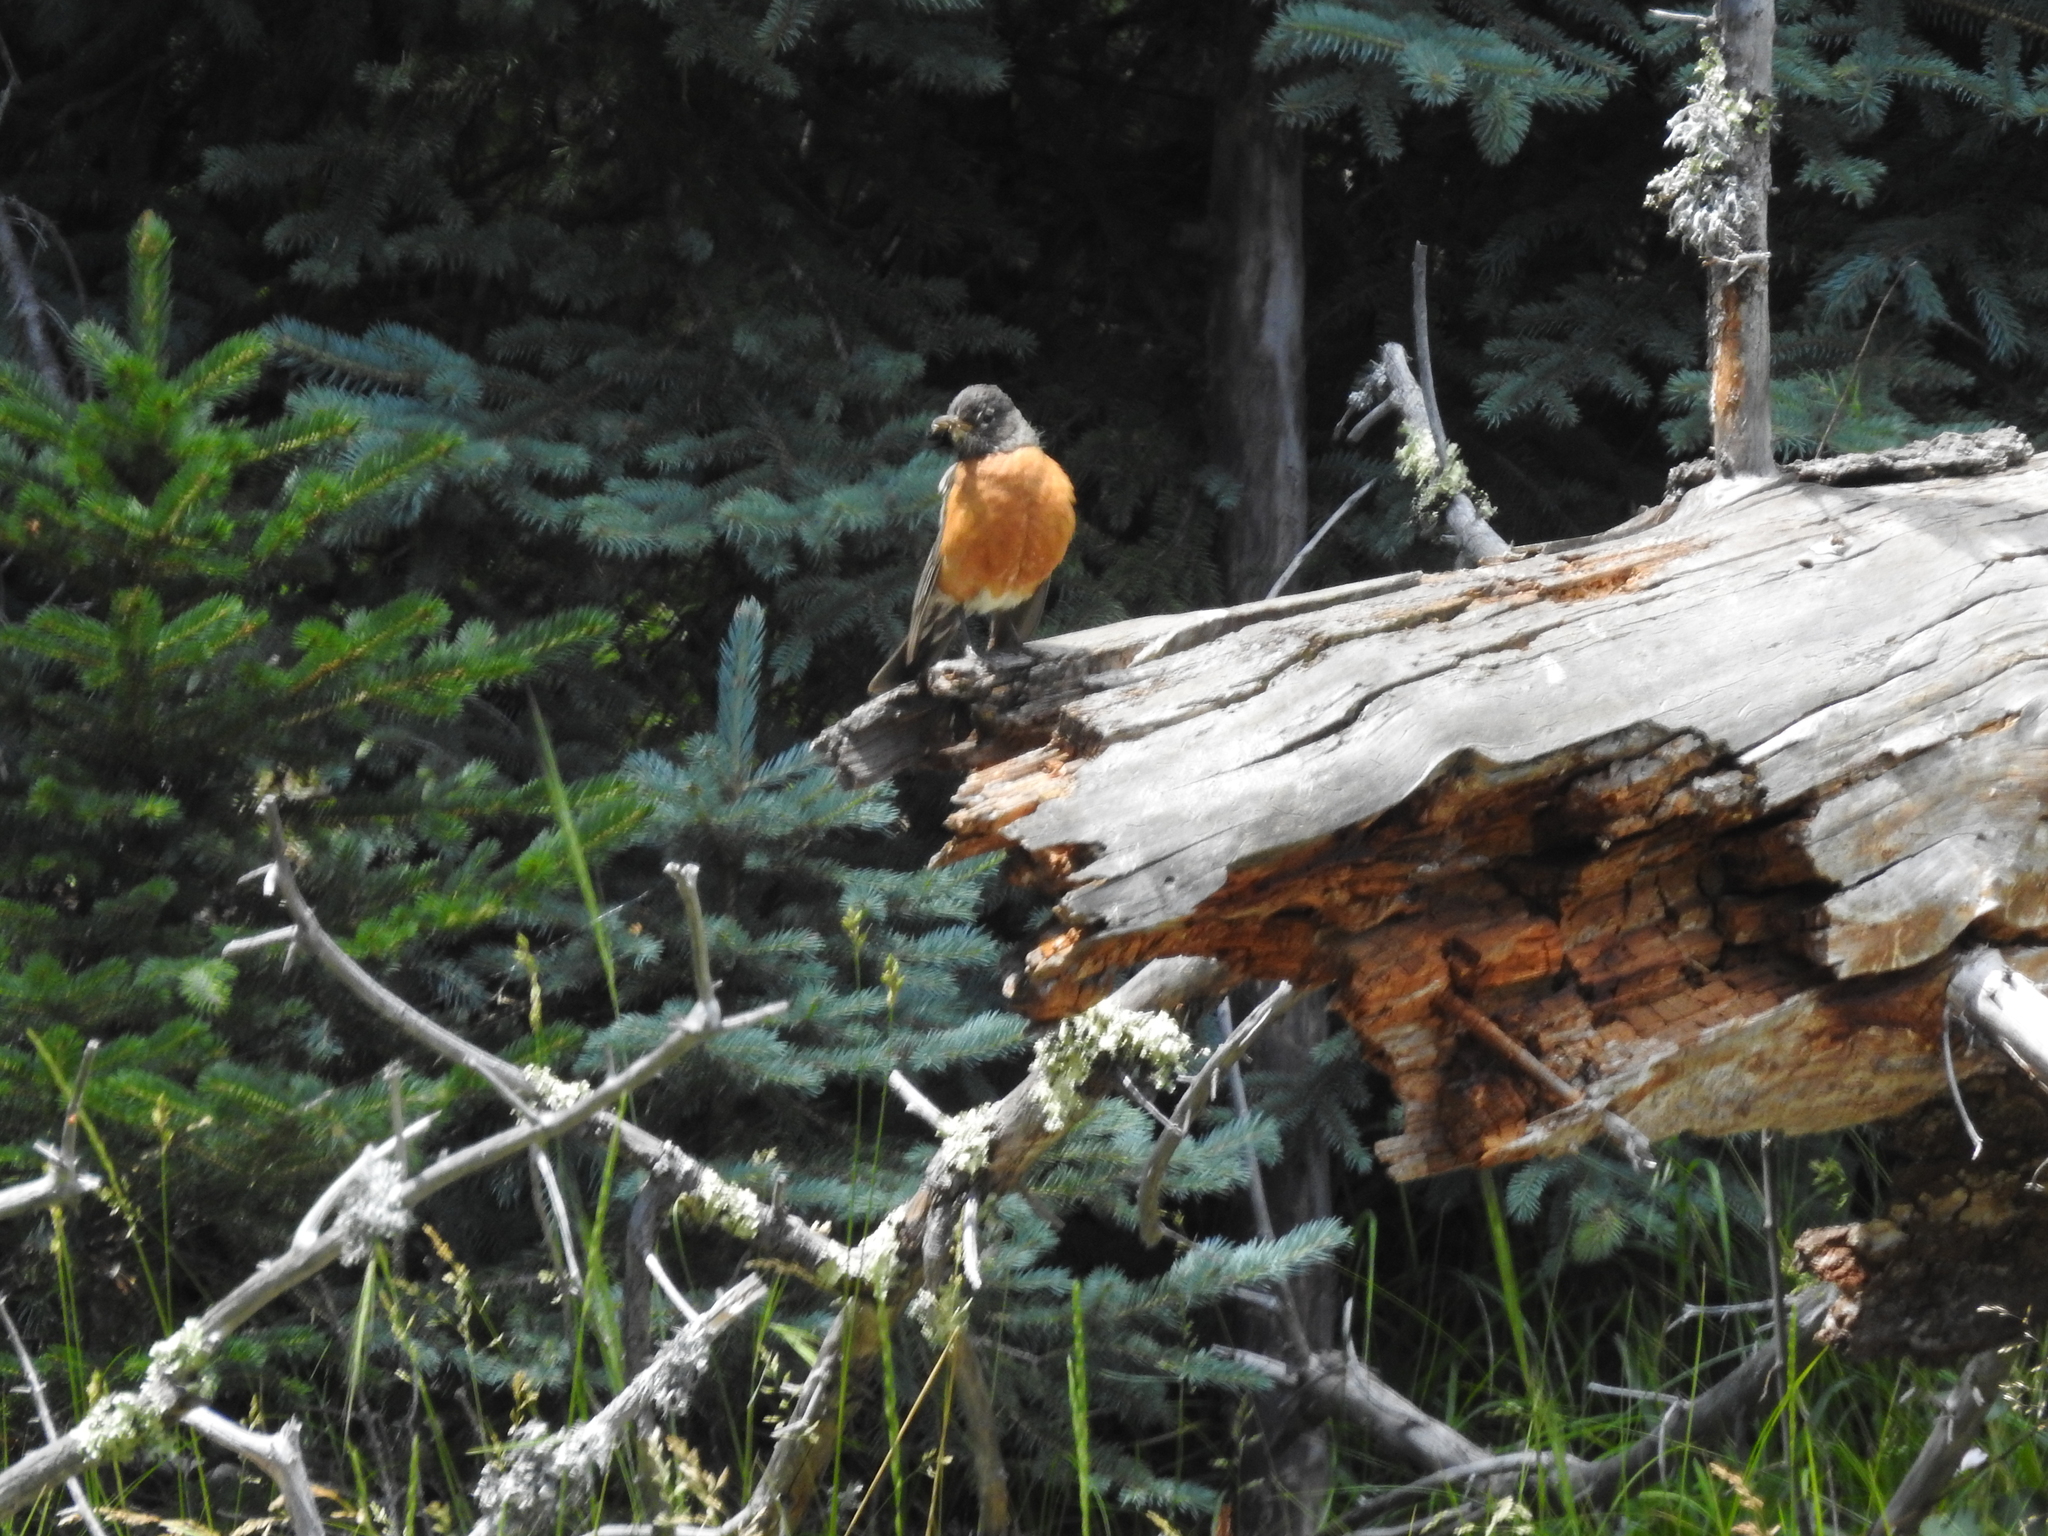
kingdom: Animalia
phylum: Chordata
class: Aves
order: Passeriformes
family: Turdidae
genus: Turdus
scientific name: Turdus migratorius
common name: American robin
